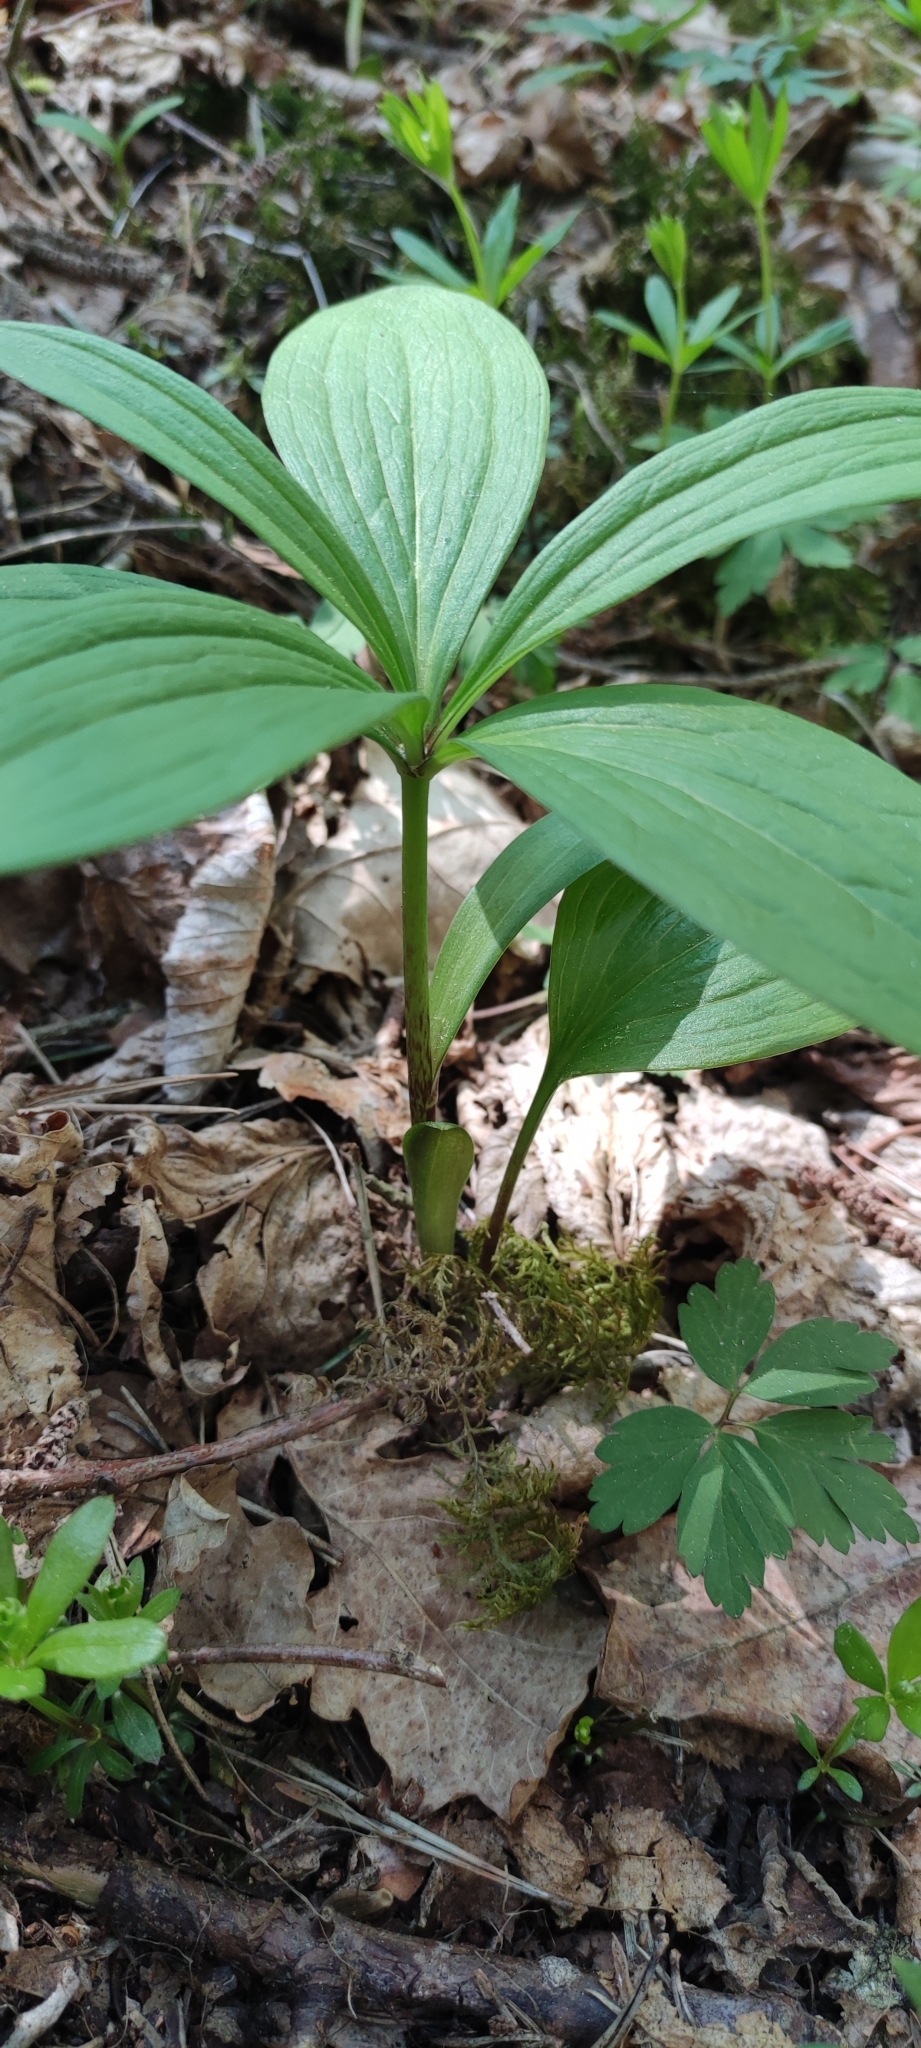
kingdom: Plantae
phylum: Tracheophyta
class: Liliopsida
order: Liliales
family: Melanthiaceae
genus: Paris
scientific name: Paris quadrifolia
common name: Herb-paris
